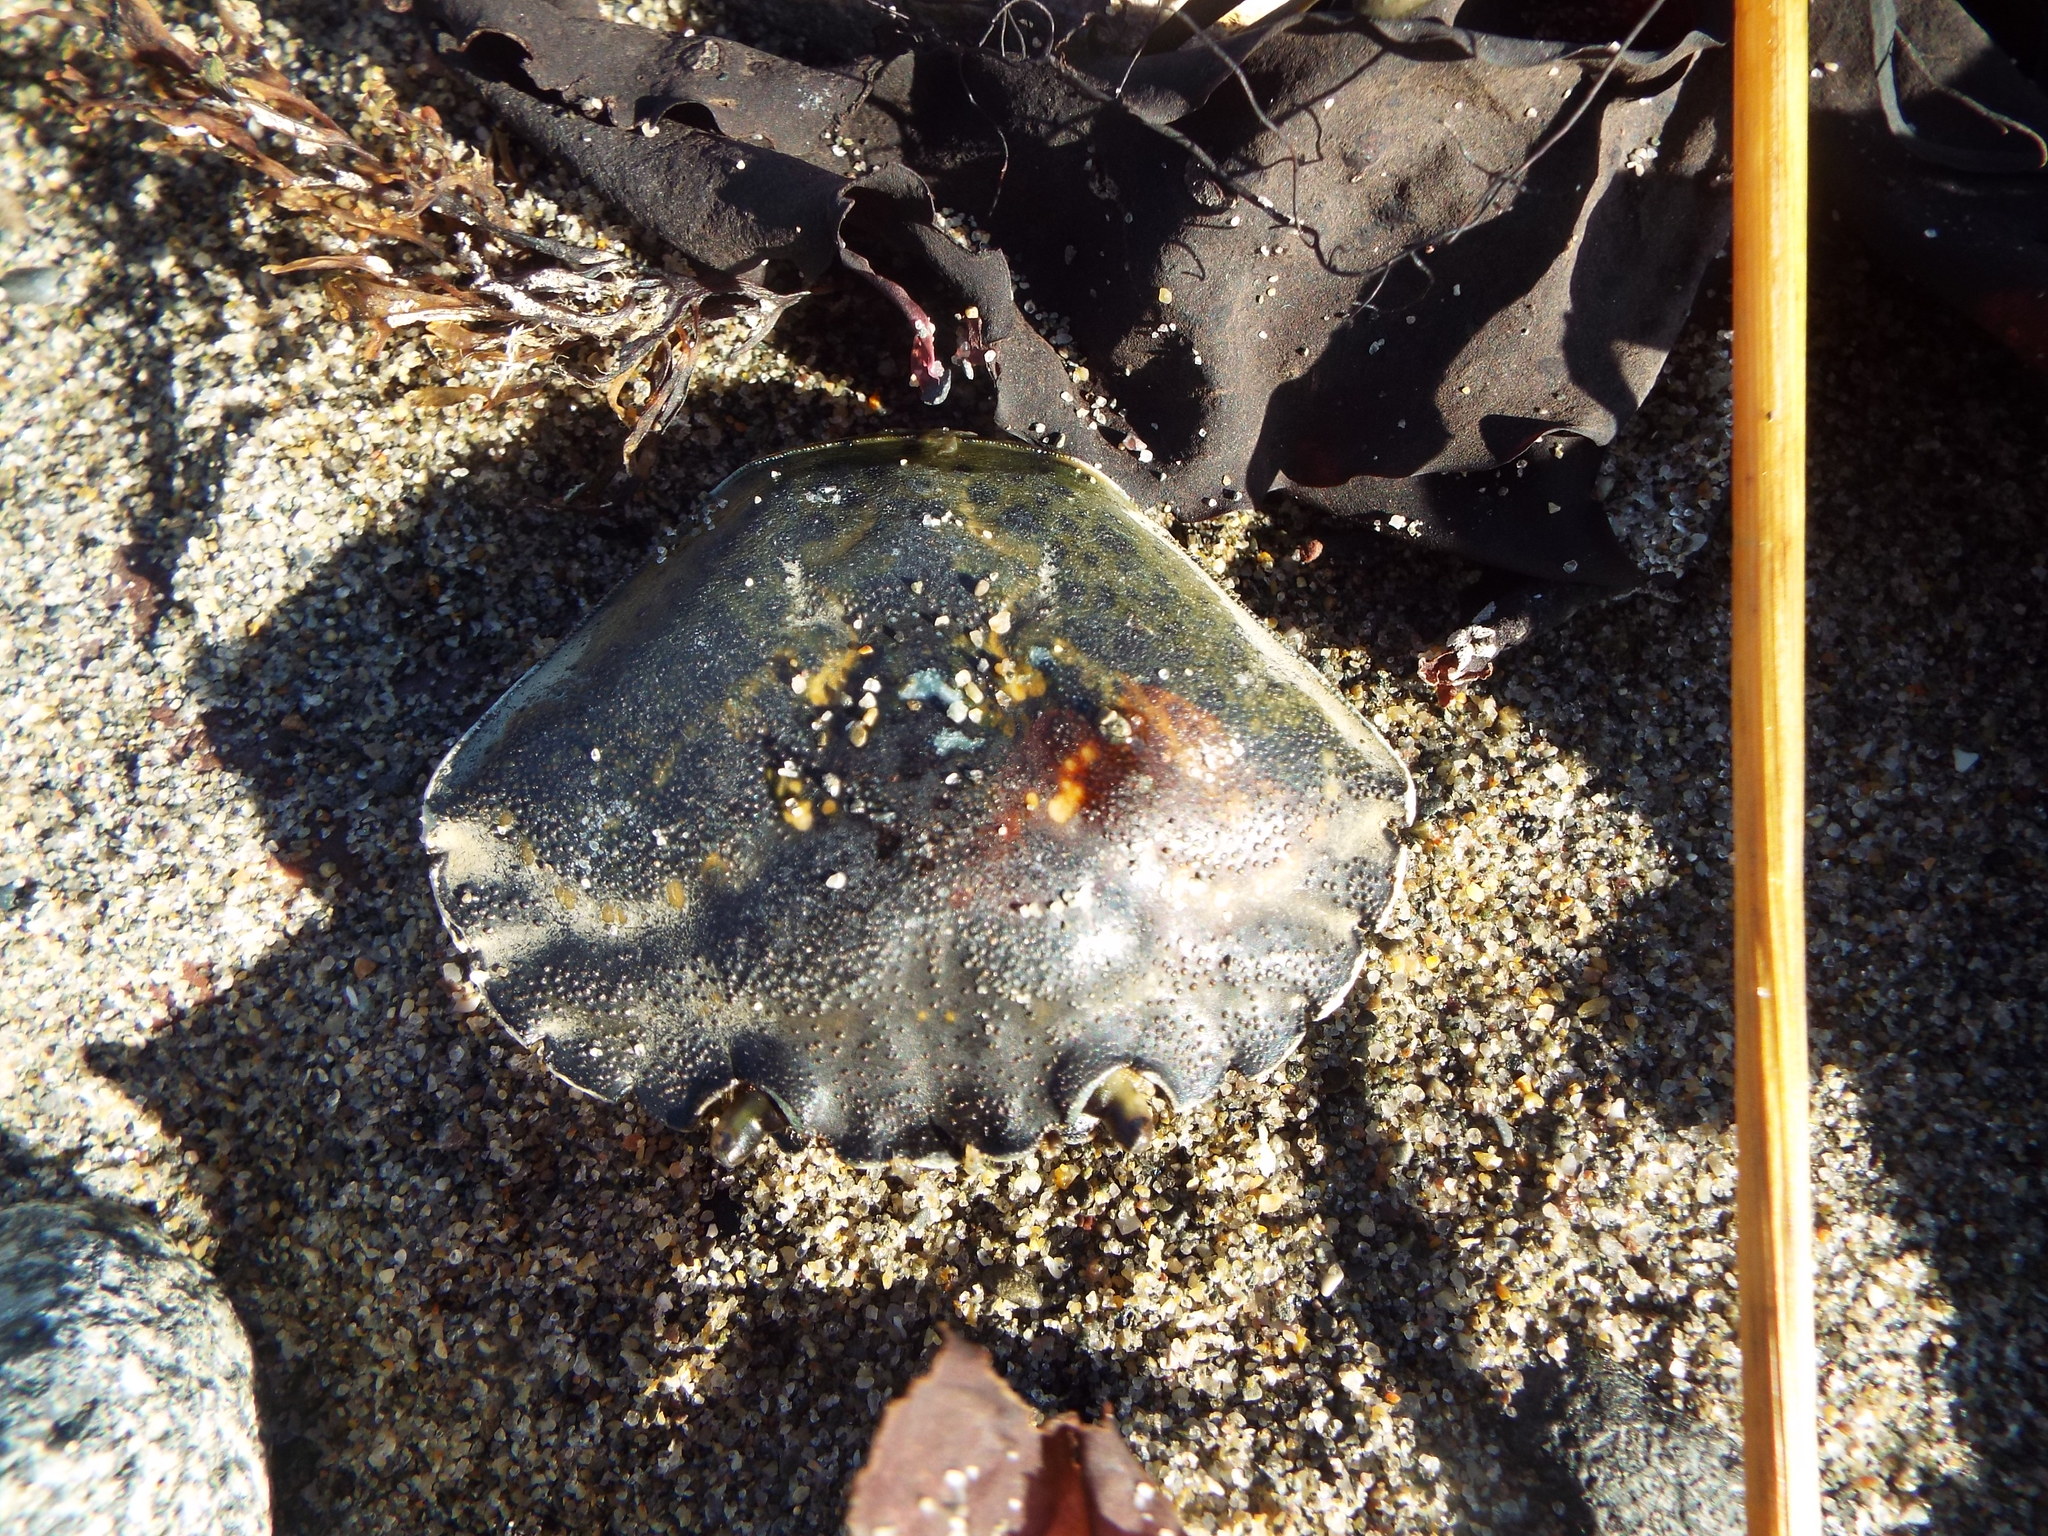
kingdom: Animalia
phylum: Arthropoda
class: Malacostraca
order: Decapoda
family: Carcinidae
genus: Carcinus
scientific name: Carcinus maenas
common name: European green crab
